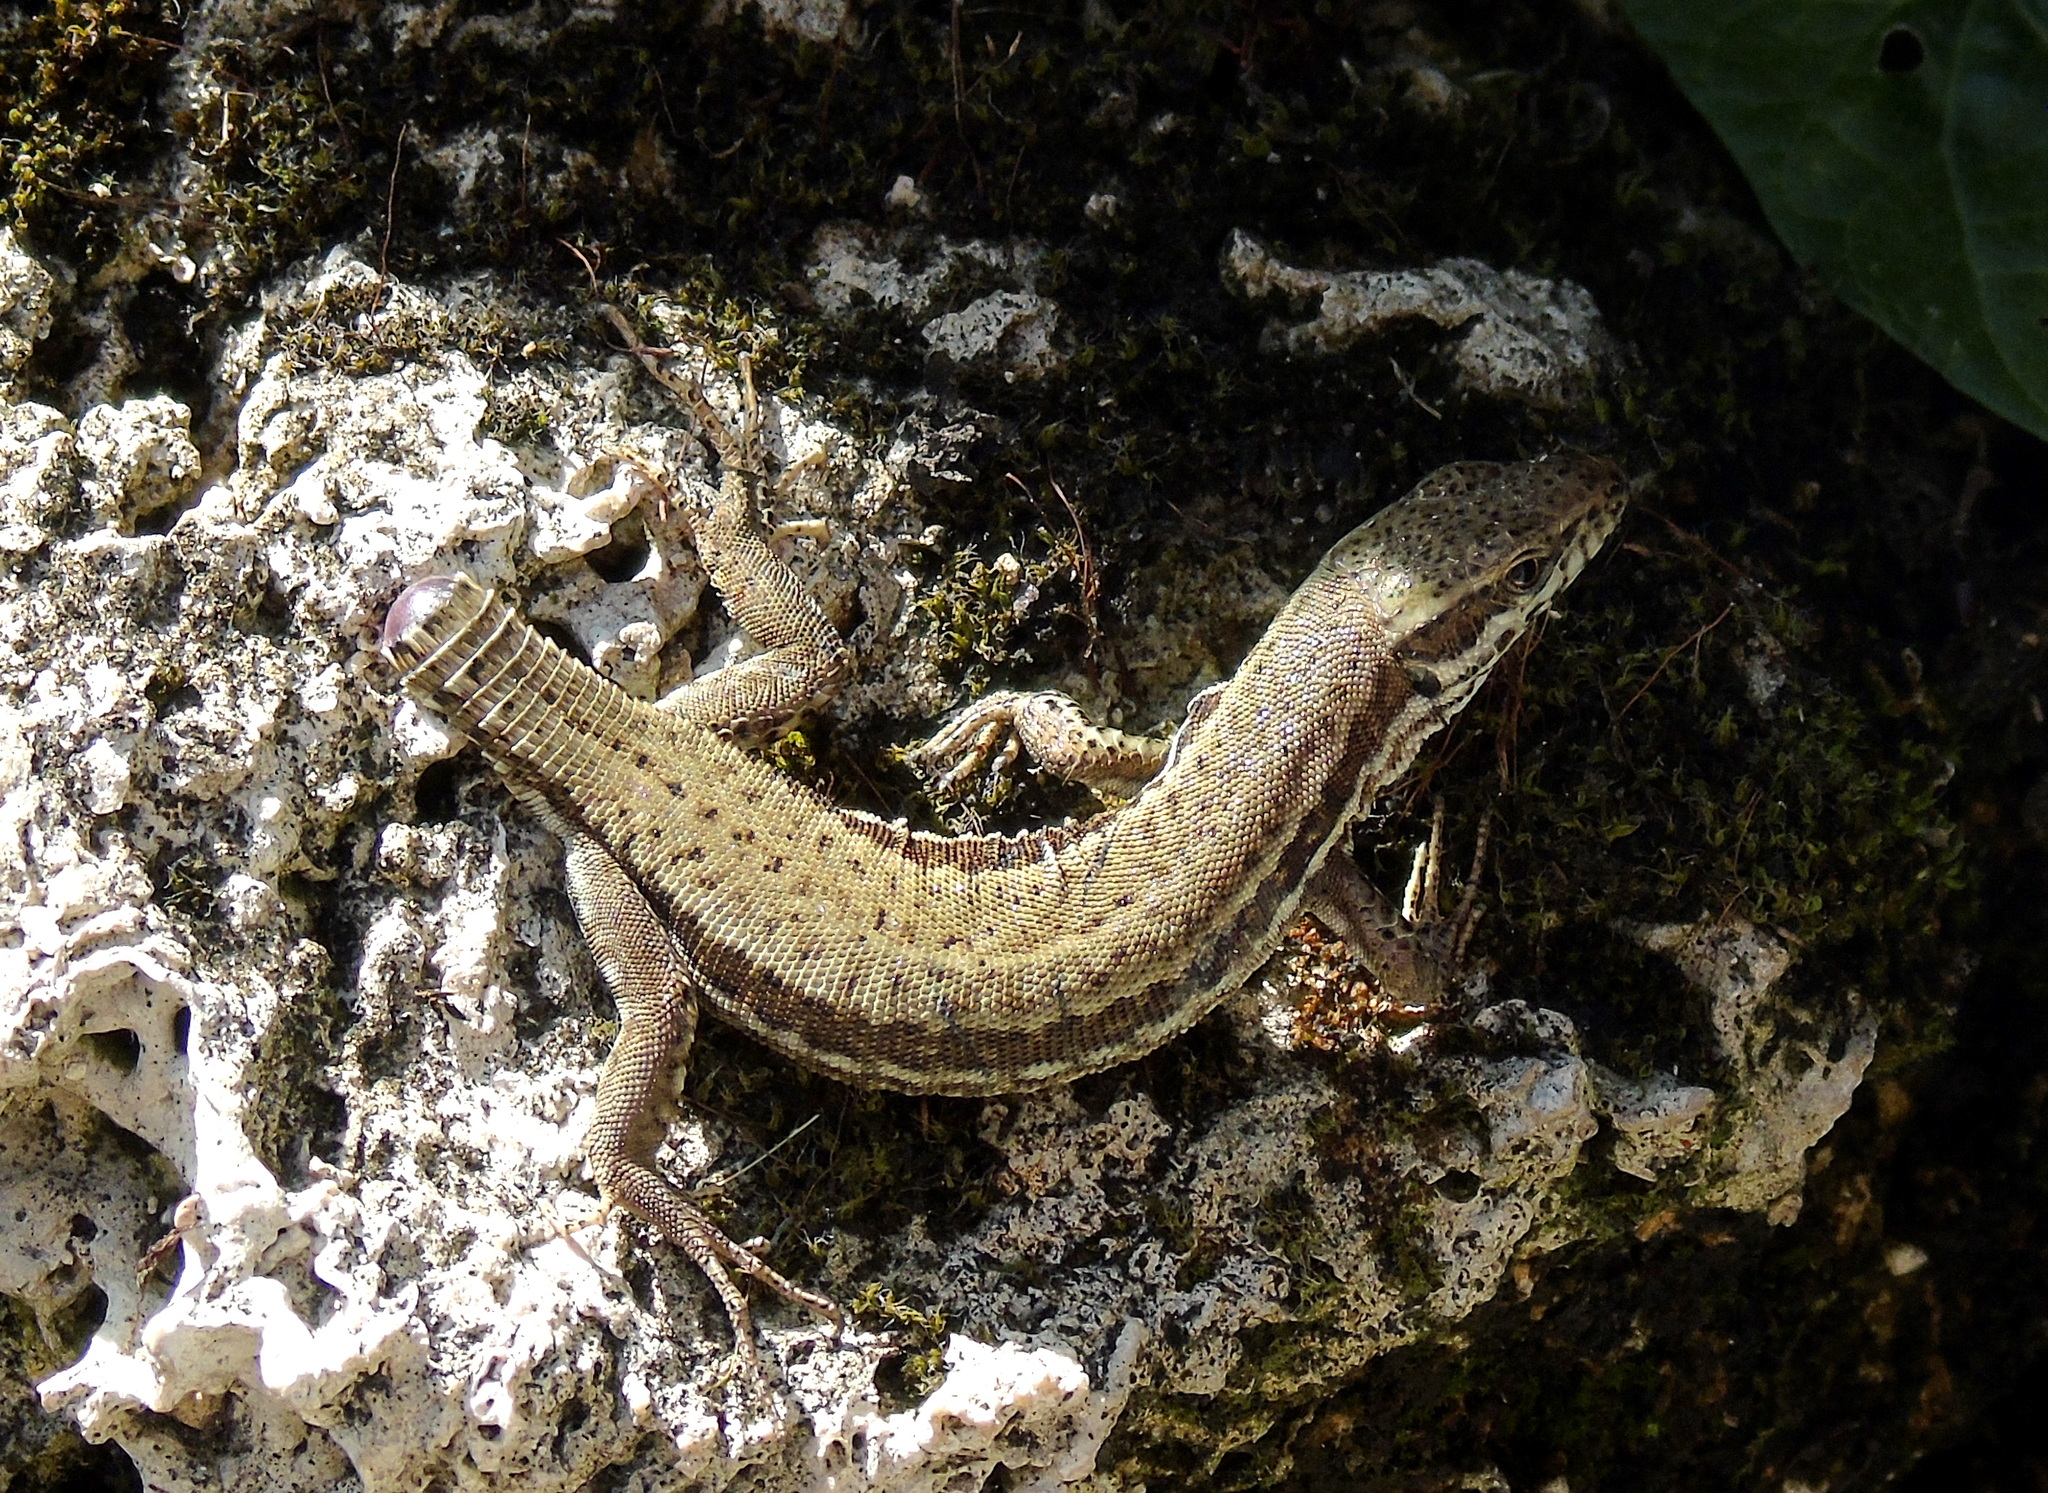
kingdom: Animalia
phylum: Chordata
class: Squamata
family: Lacertidae
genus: Podarcis
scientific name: Podarcis muralis
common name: Common wall lizard
